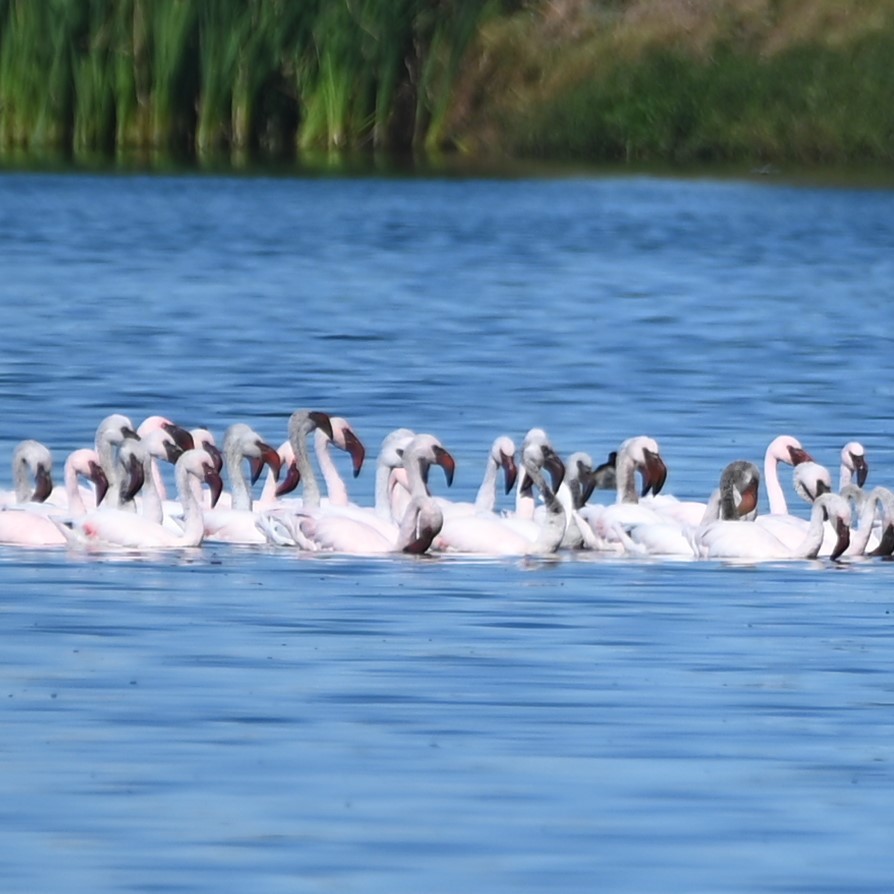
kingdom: Animalia
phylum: Chordata
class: Aves
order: Phoenicopteriformes
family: Phoenicopteridae
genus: Phoeniconaias
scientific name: Phoeniconaias minor
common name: Lesser flamingo
